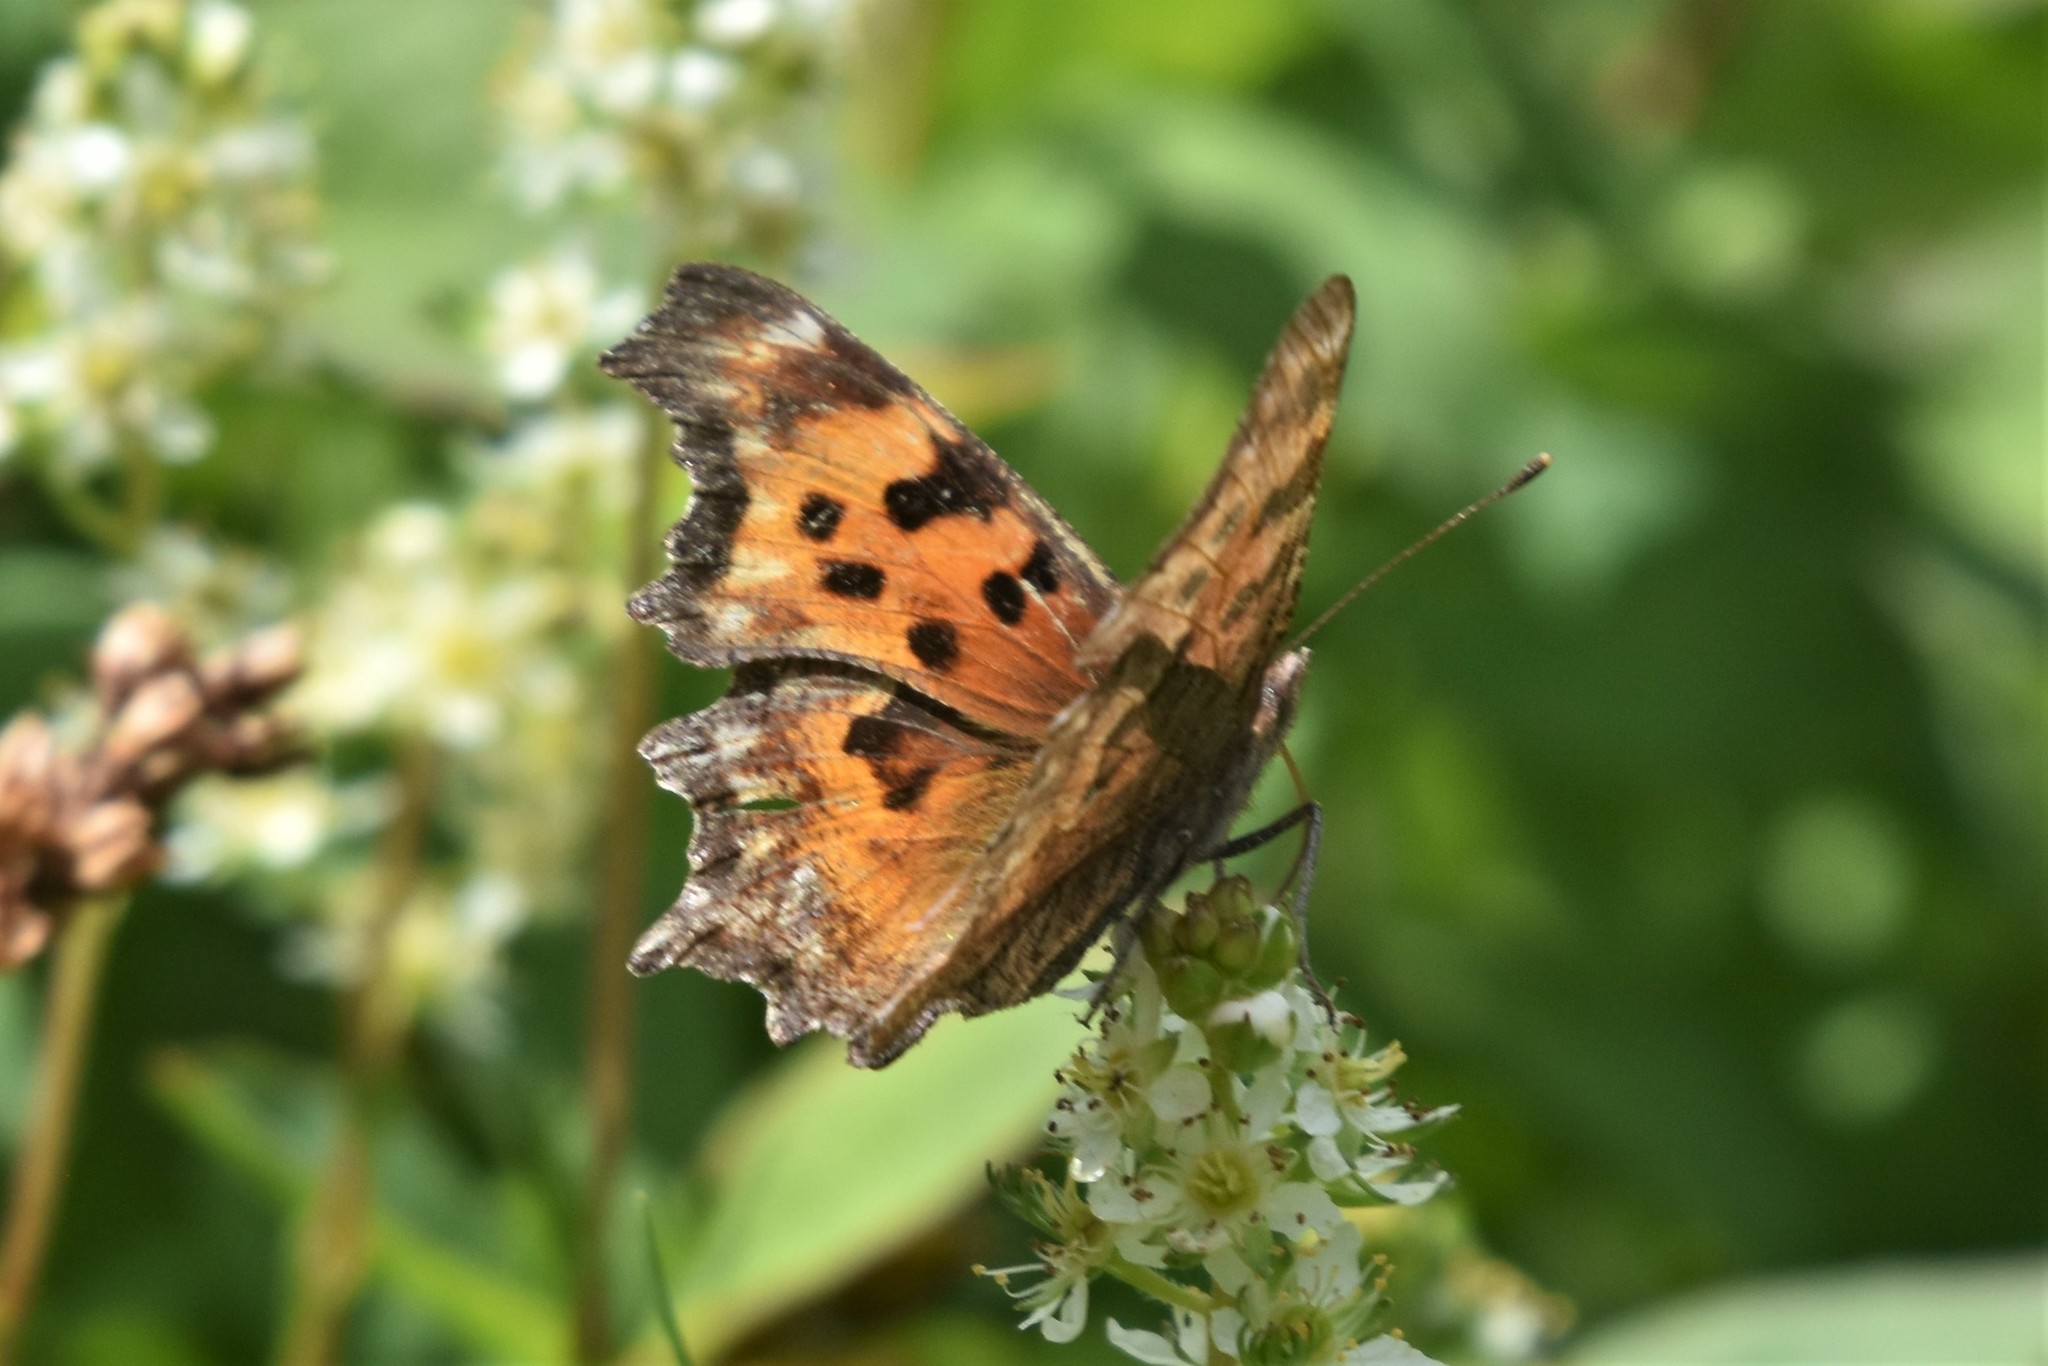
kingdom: Animalia
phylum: Arthropoda
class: Insecta
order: Lepidoptera
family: Nymphalidae
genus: Polygonia
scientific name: Polygonia gracilis
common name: Hoary comma
